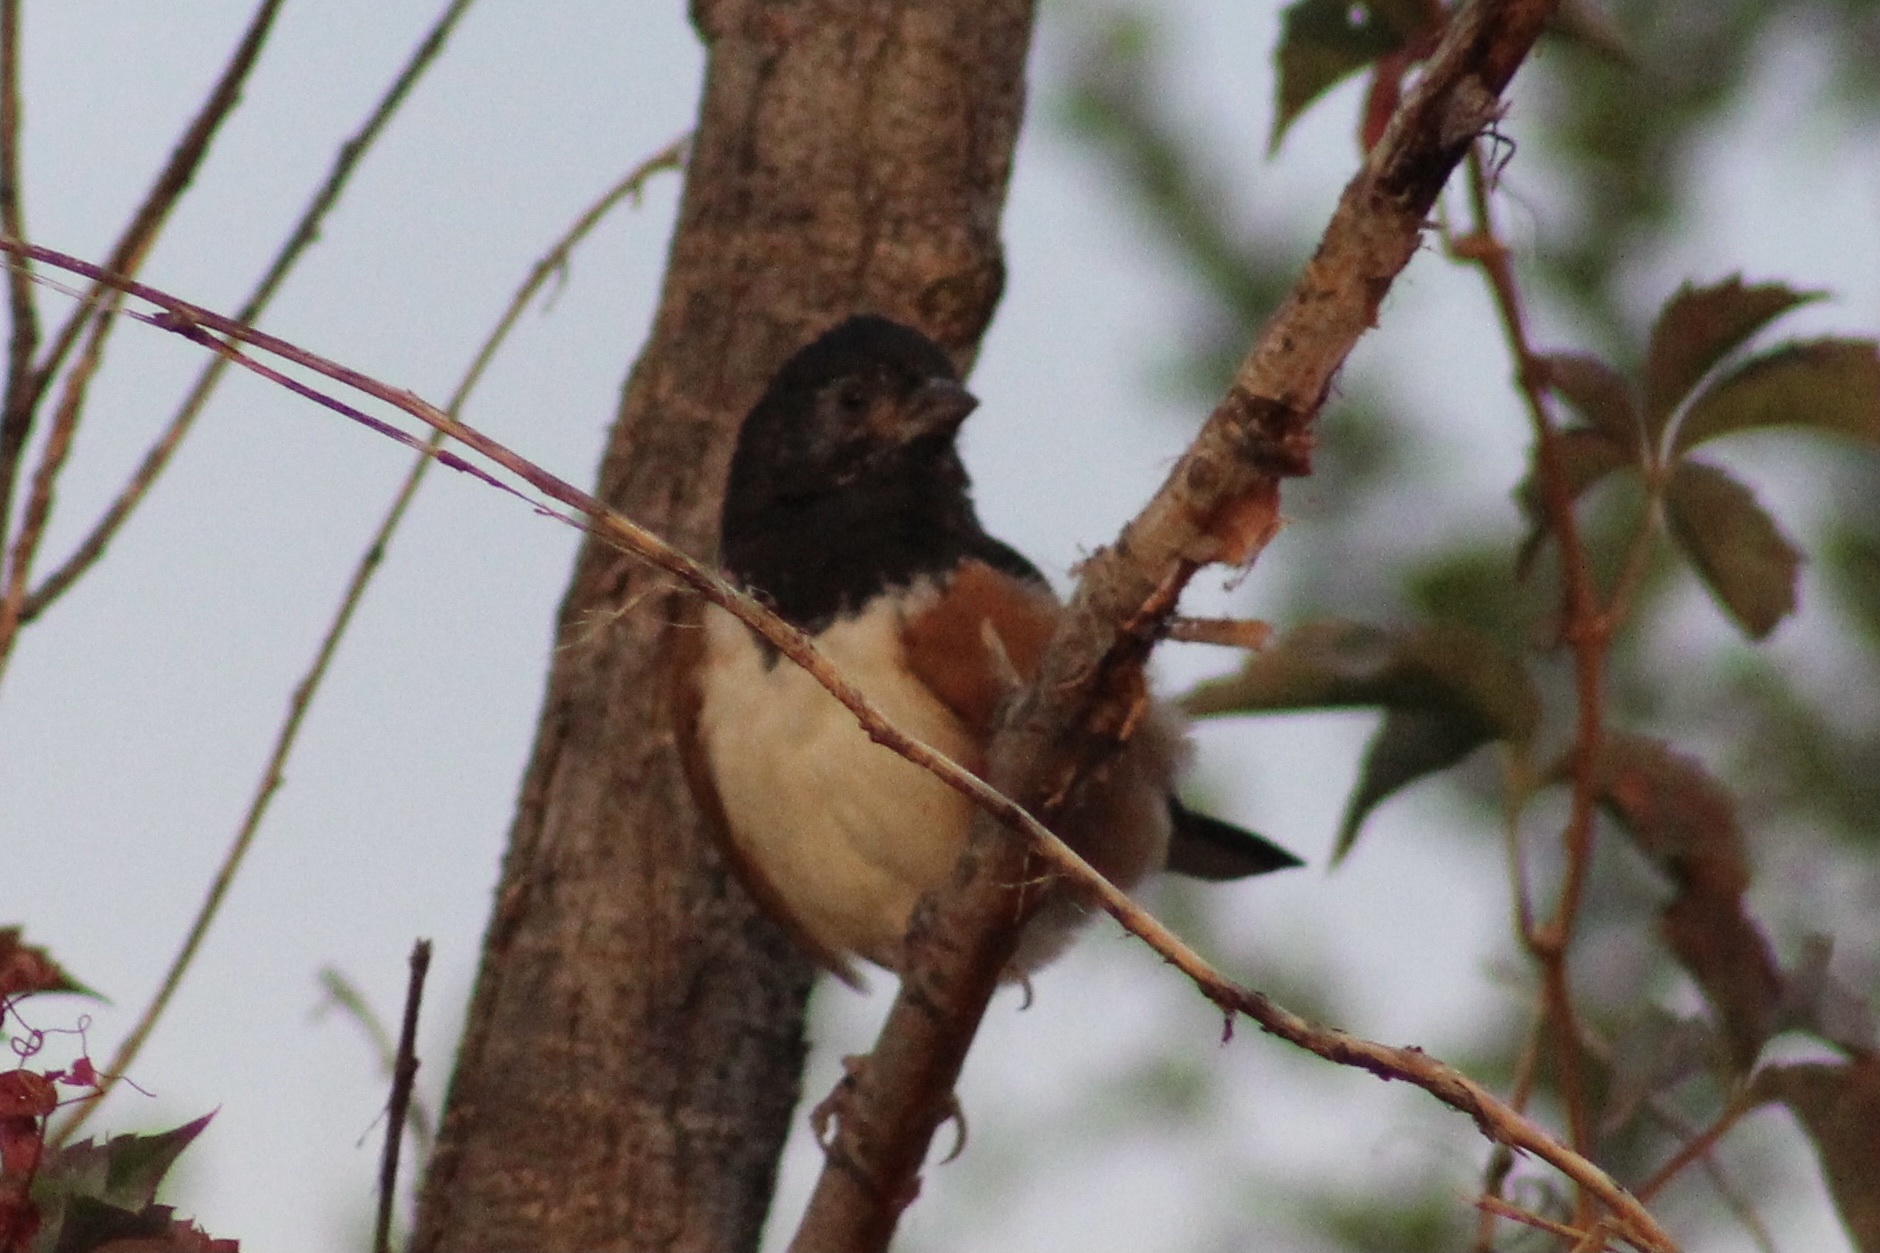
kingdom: Animalia
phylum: Chordata
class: Aves
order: Passeriformes
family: Passerellidae
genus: Pipilo
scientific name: Pipilo maculatus
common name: Spotted towhee
